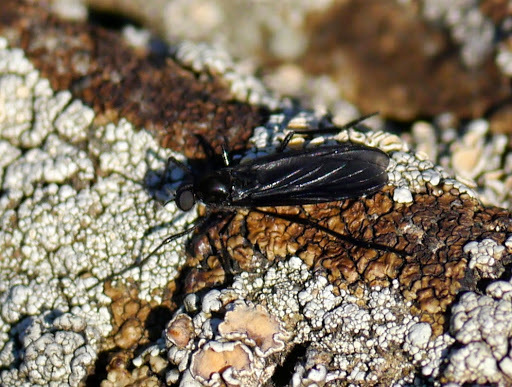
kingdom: Animalia
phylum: Arthropoda
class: Insecta
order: Diptera
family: Bibionidae
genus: Penthetria
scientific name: Penthetria heteroptera
